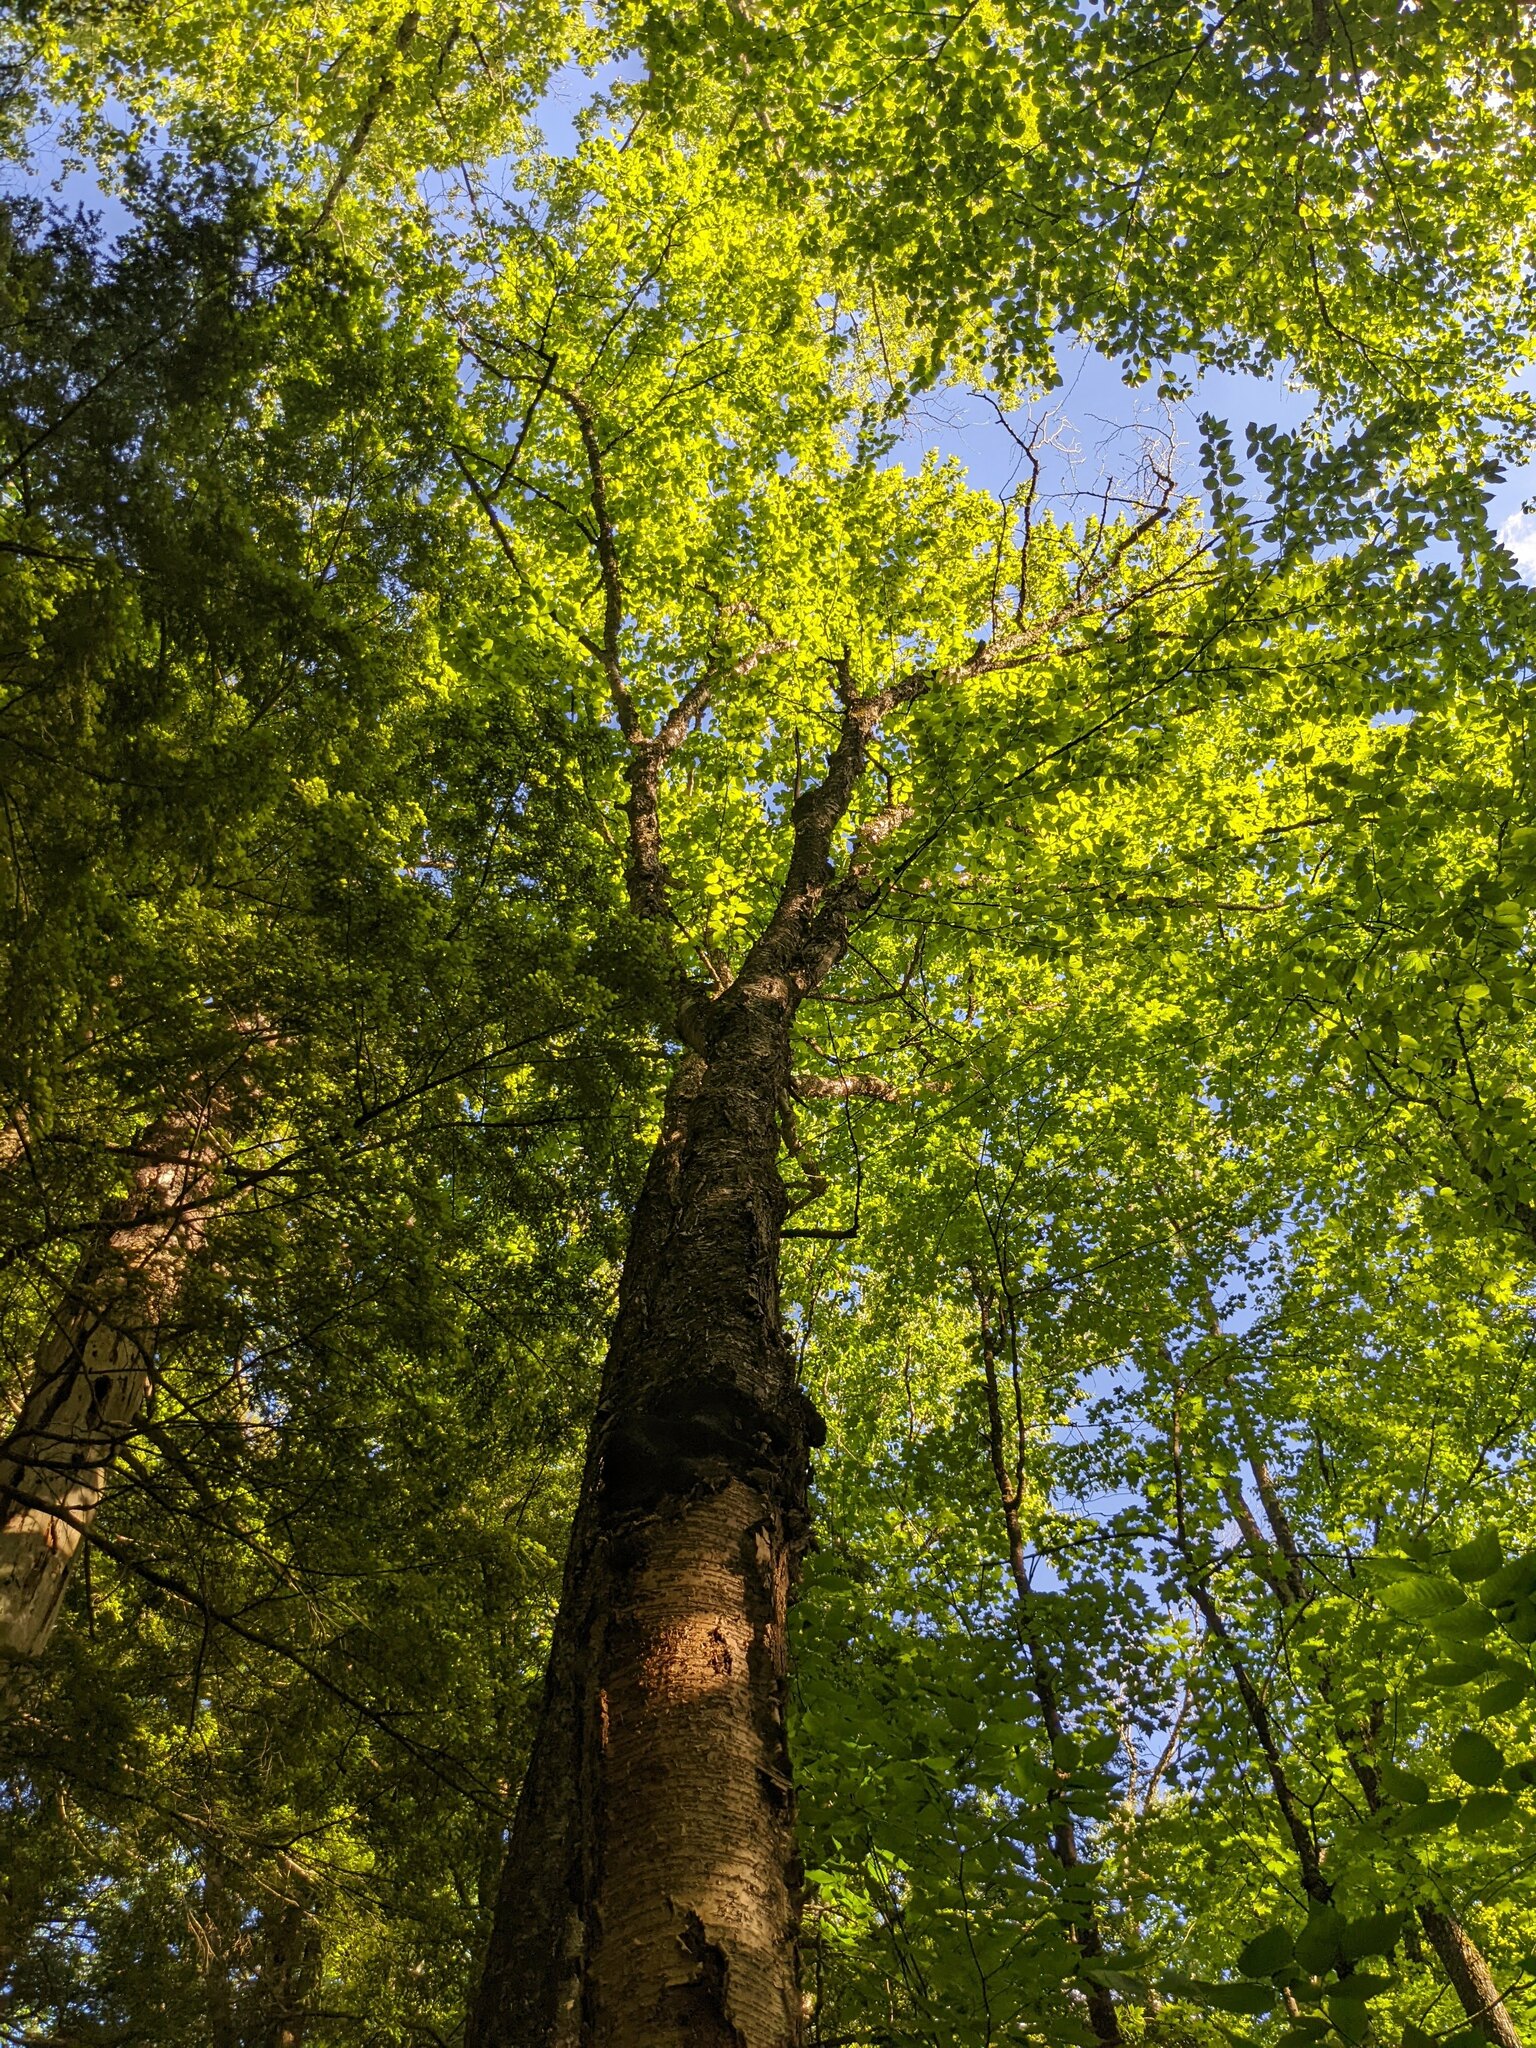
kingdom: Plantae
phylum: Tracheophyta
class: Magnoliopsida
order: Fagales
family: Betulaceae
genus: Betula
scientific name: Betula alleghaniensis
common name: Yellow birch
